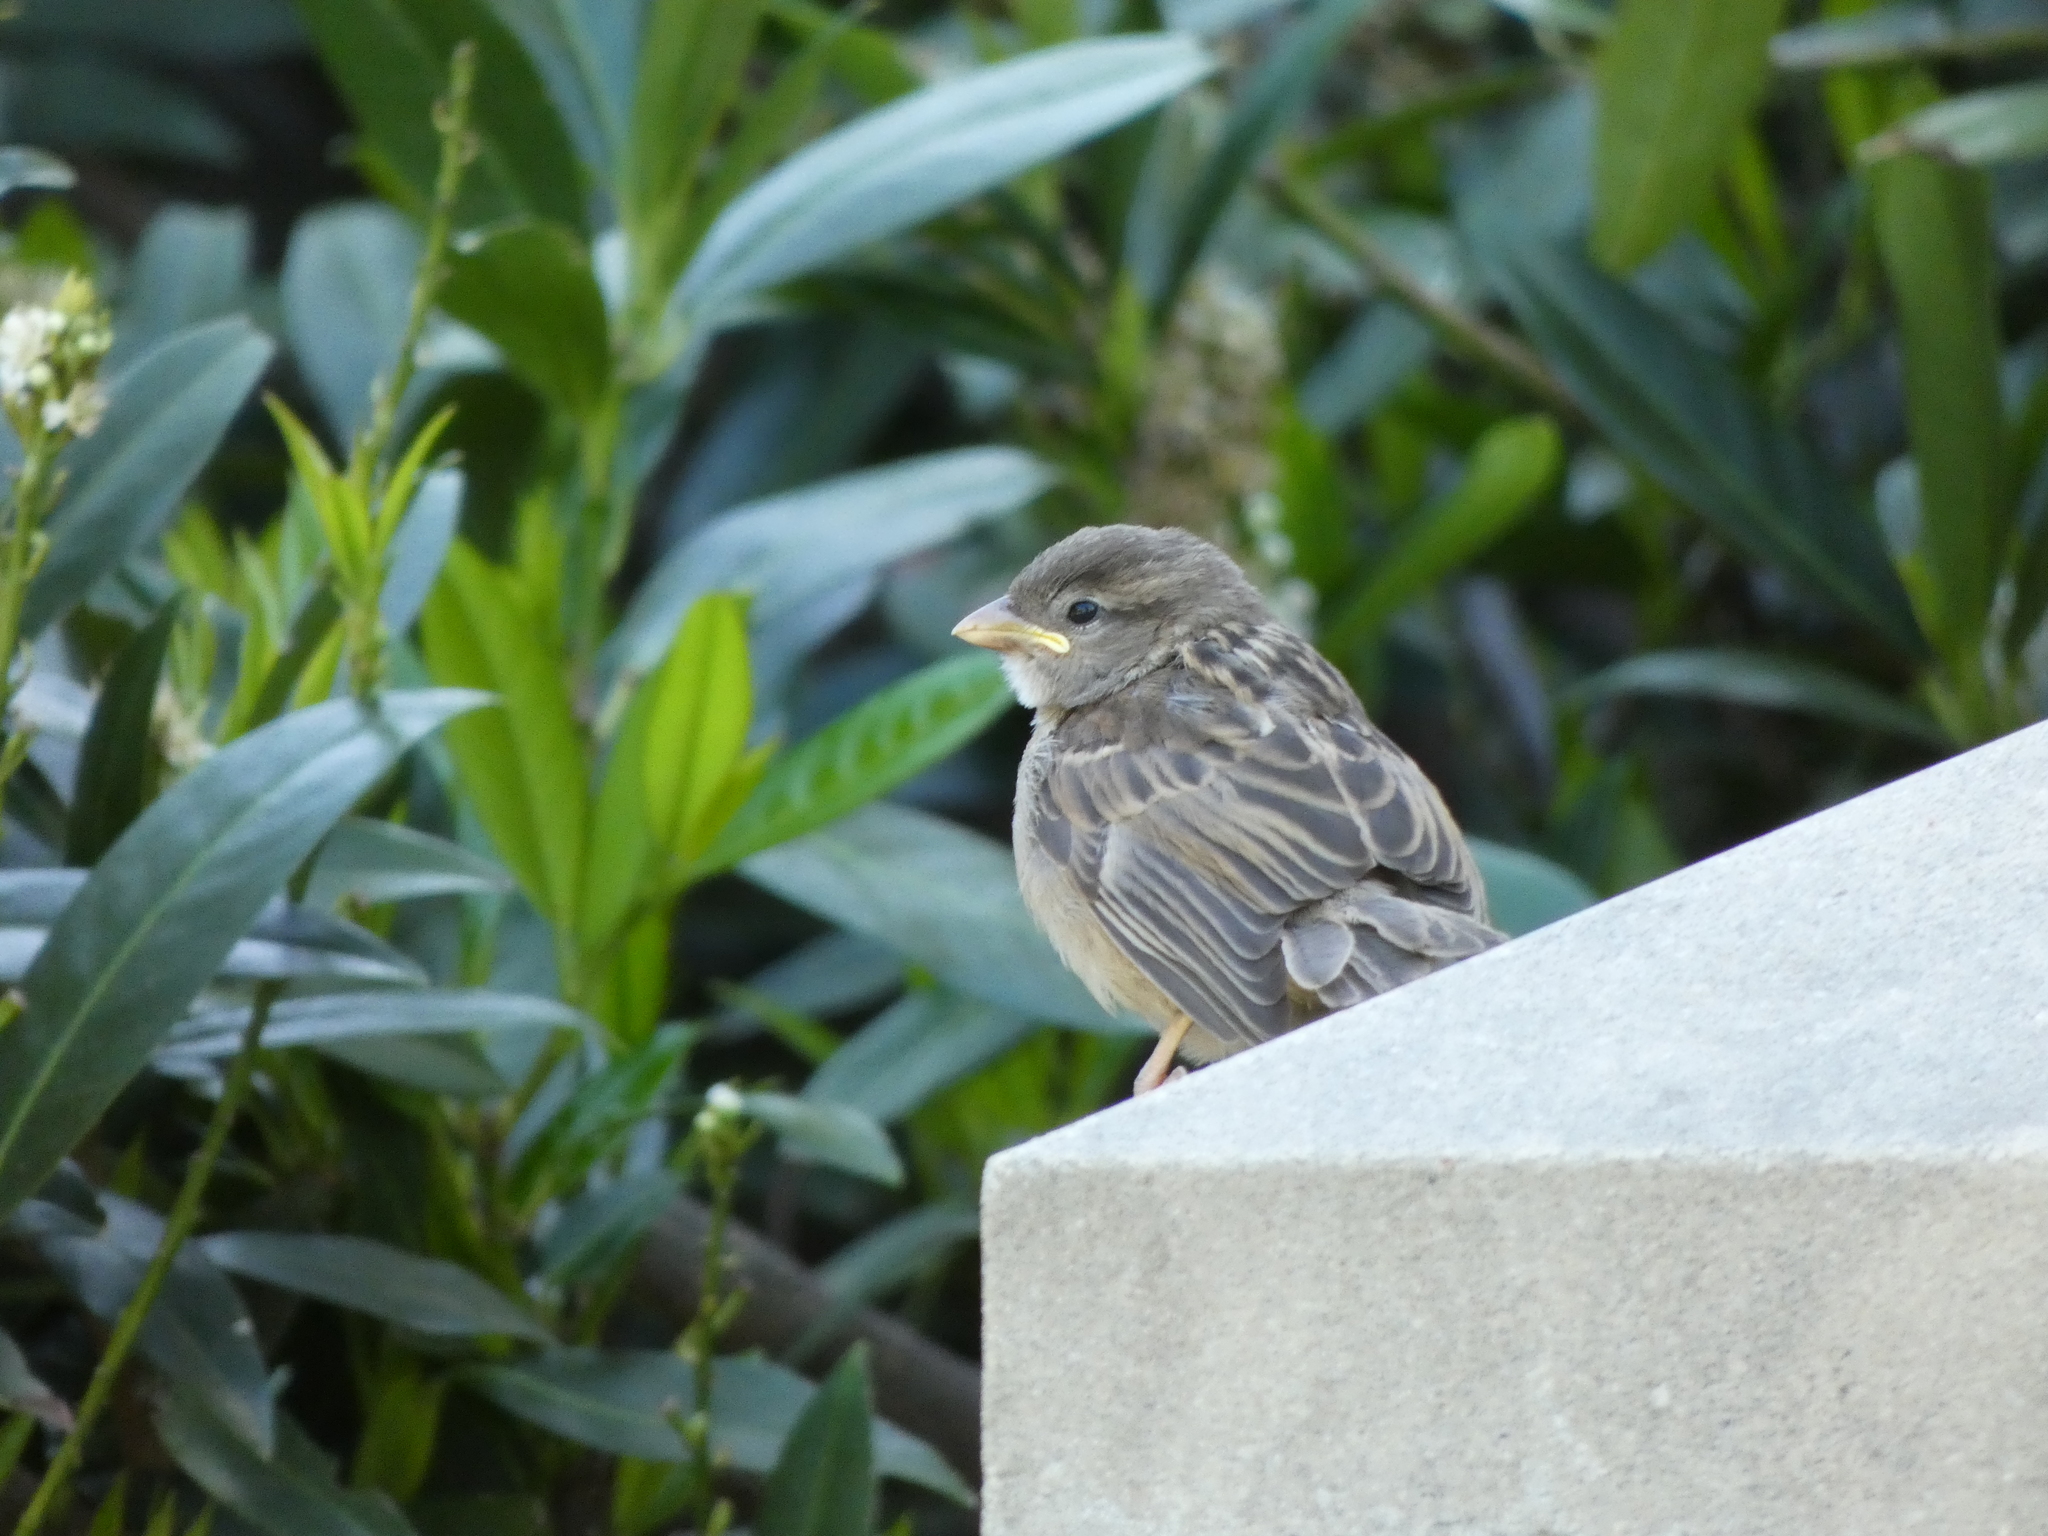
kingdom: Animalia
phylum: Chordata
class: Aves
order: Passeriformes
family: Passeridae
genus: Passer
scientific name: Passer domesticus
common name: House sparrow
